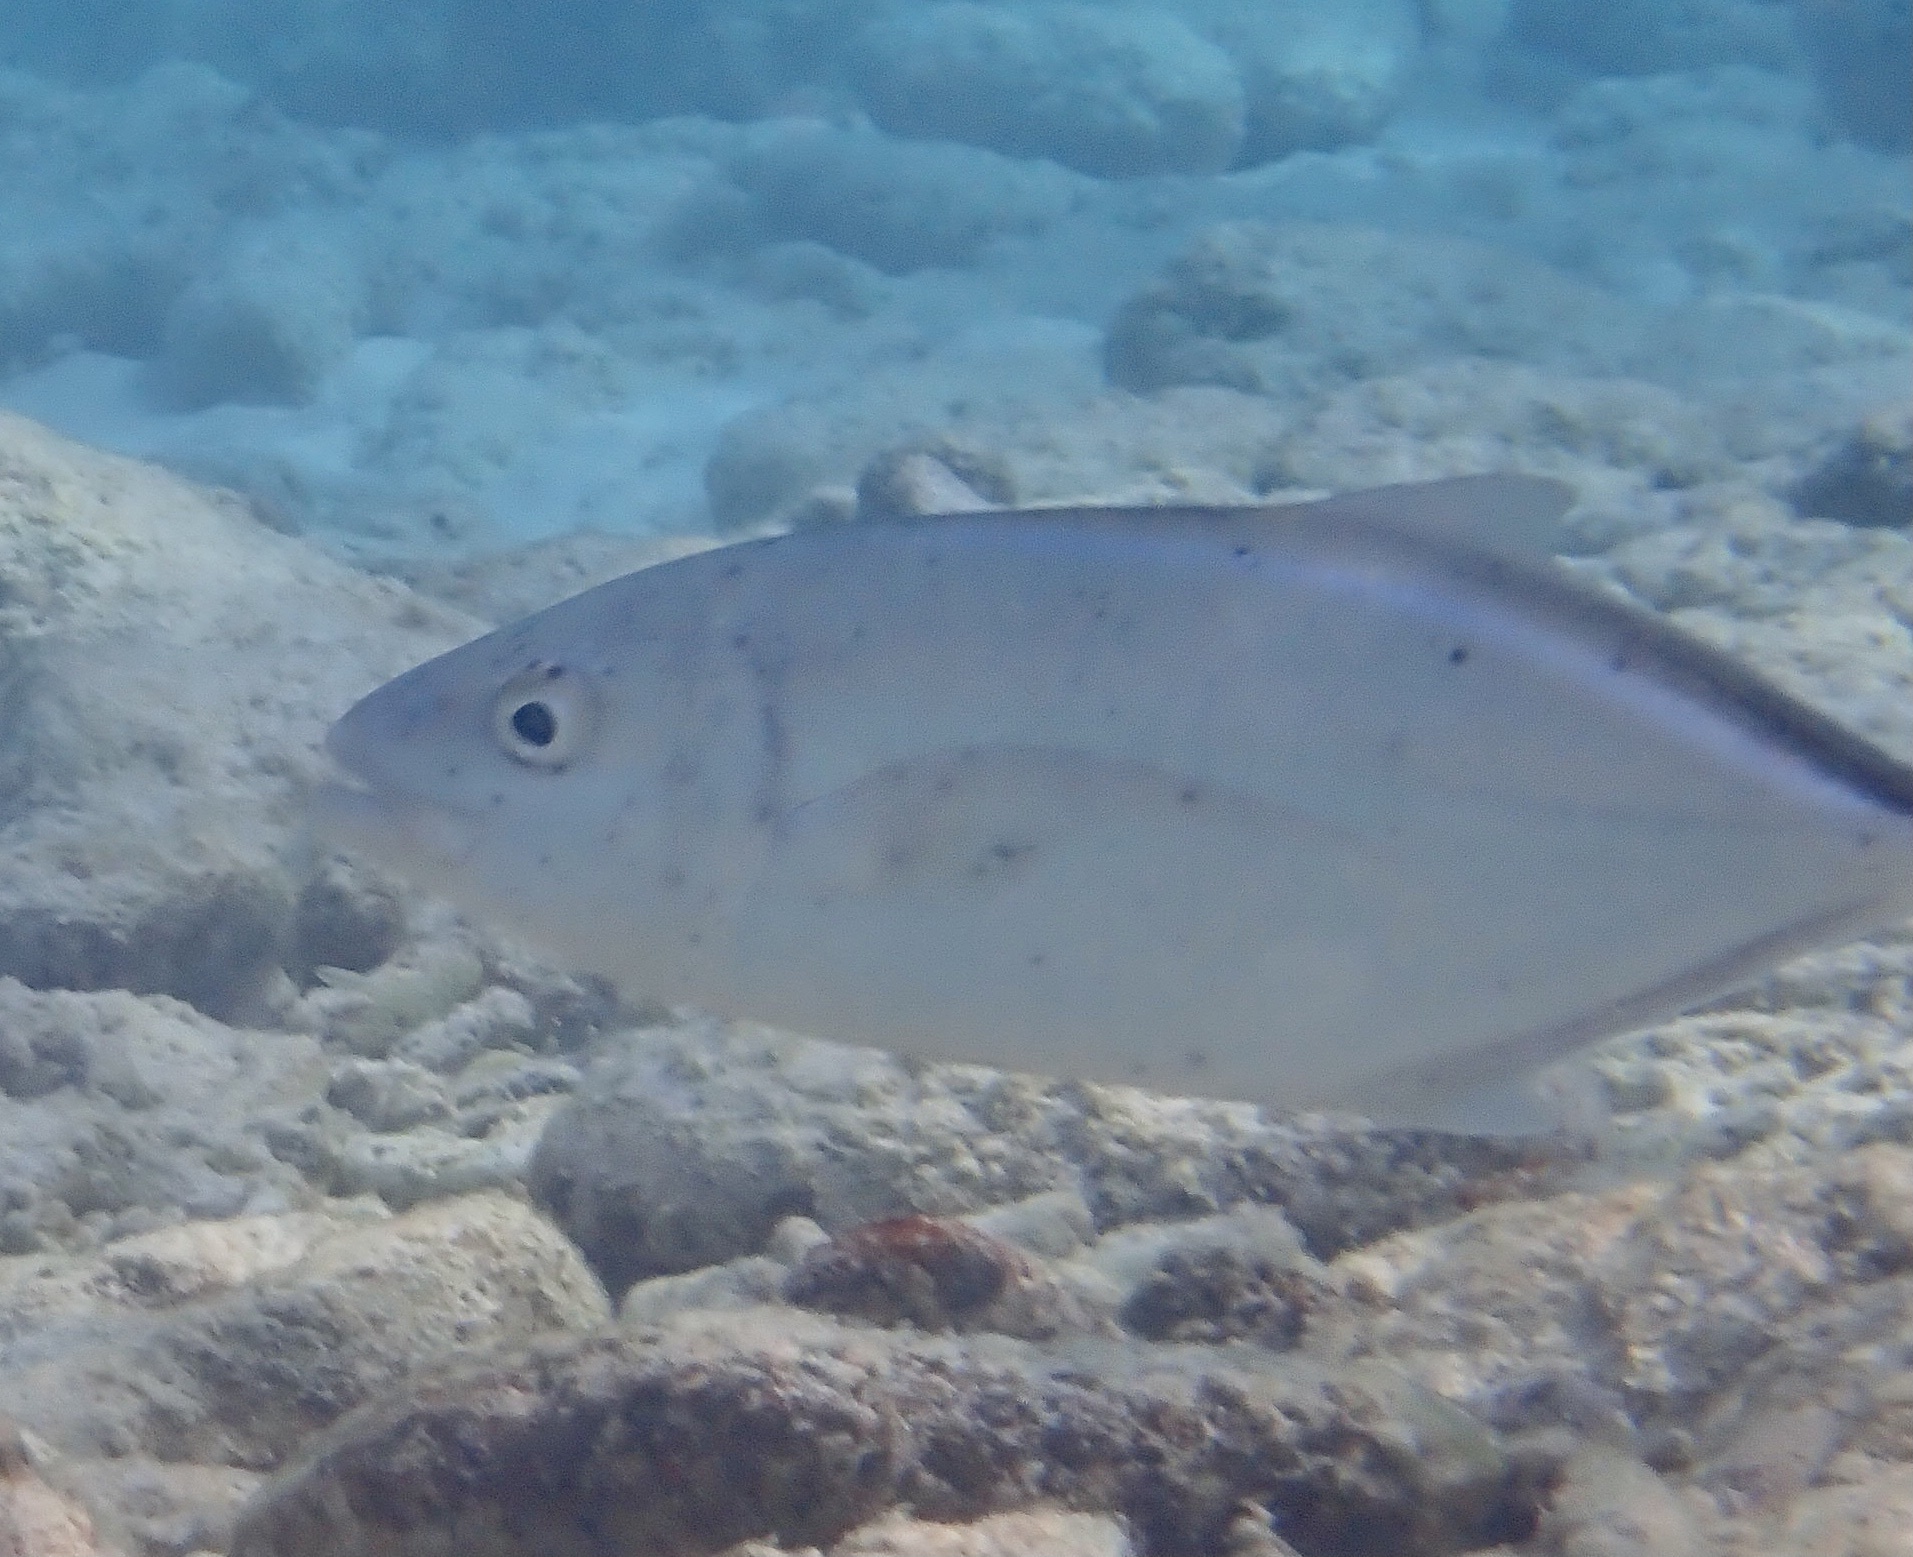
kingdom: Animalia
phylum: Chordata
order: Perciformes
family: Carangidae
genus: Caranx
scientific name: Caranx ruber
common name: Bar jack
